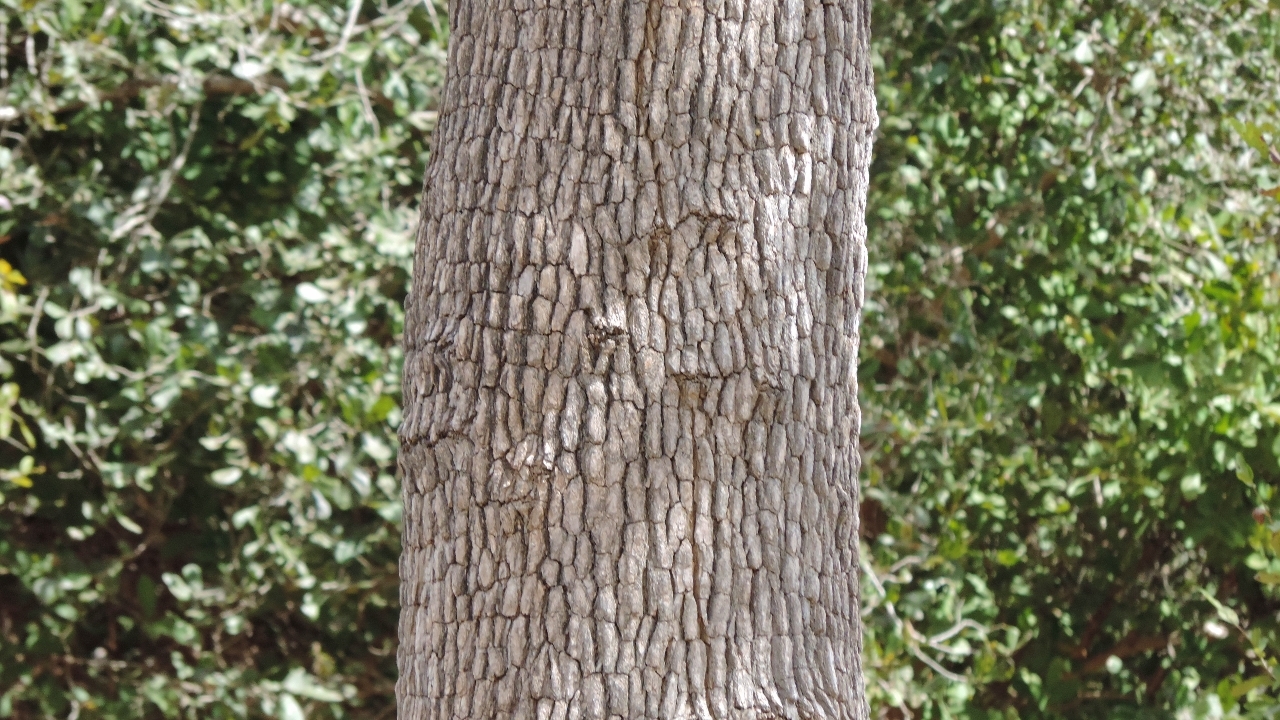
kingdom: Plantae
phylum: Tracheophyta
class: Magnoliopsida
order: Myrtales
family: Combretaceae
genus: Combretum
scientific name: Combretum imberbe
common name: Leadwood
